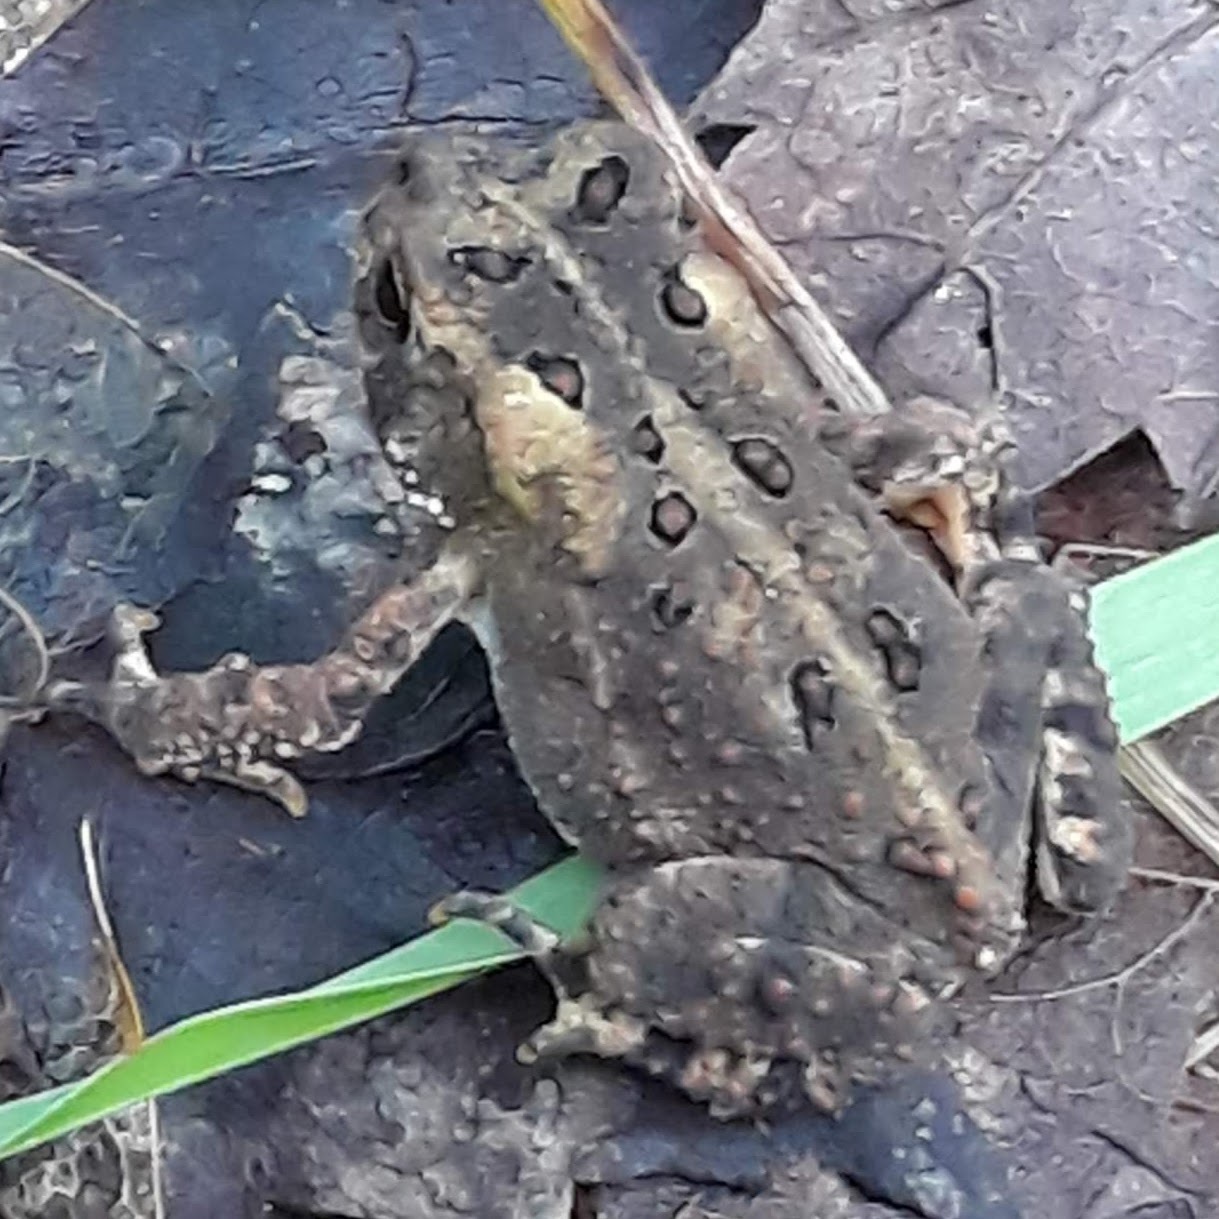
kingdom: Animalia
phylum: Chordata
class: Amphibia
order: Anura
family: Bufonidae
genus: Anaxyrus
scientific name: Anaxyrus americanus
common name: American toad
